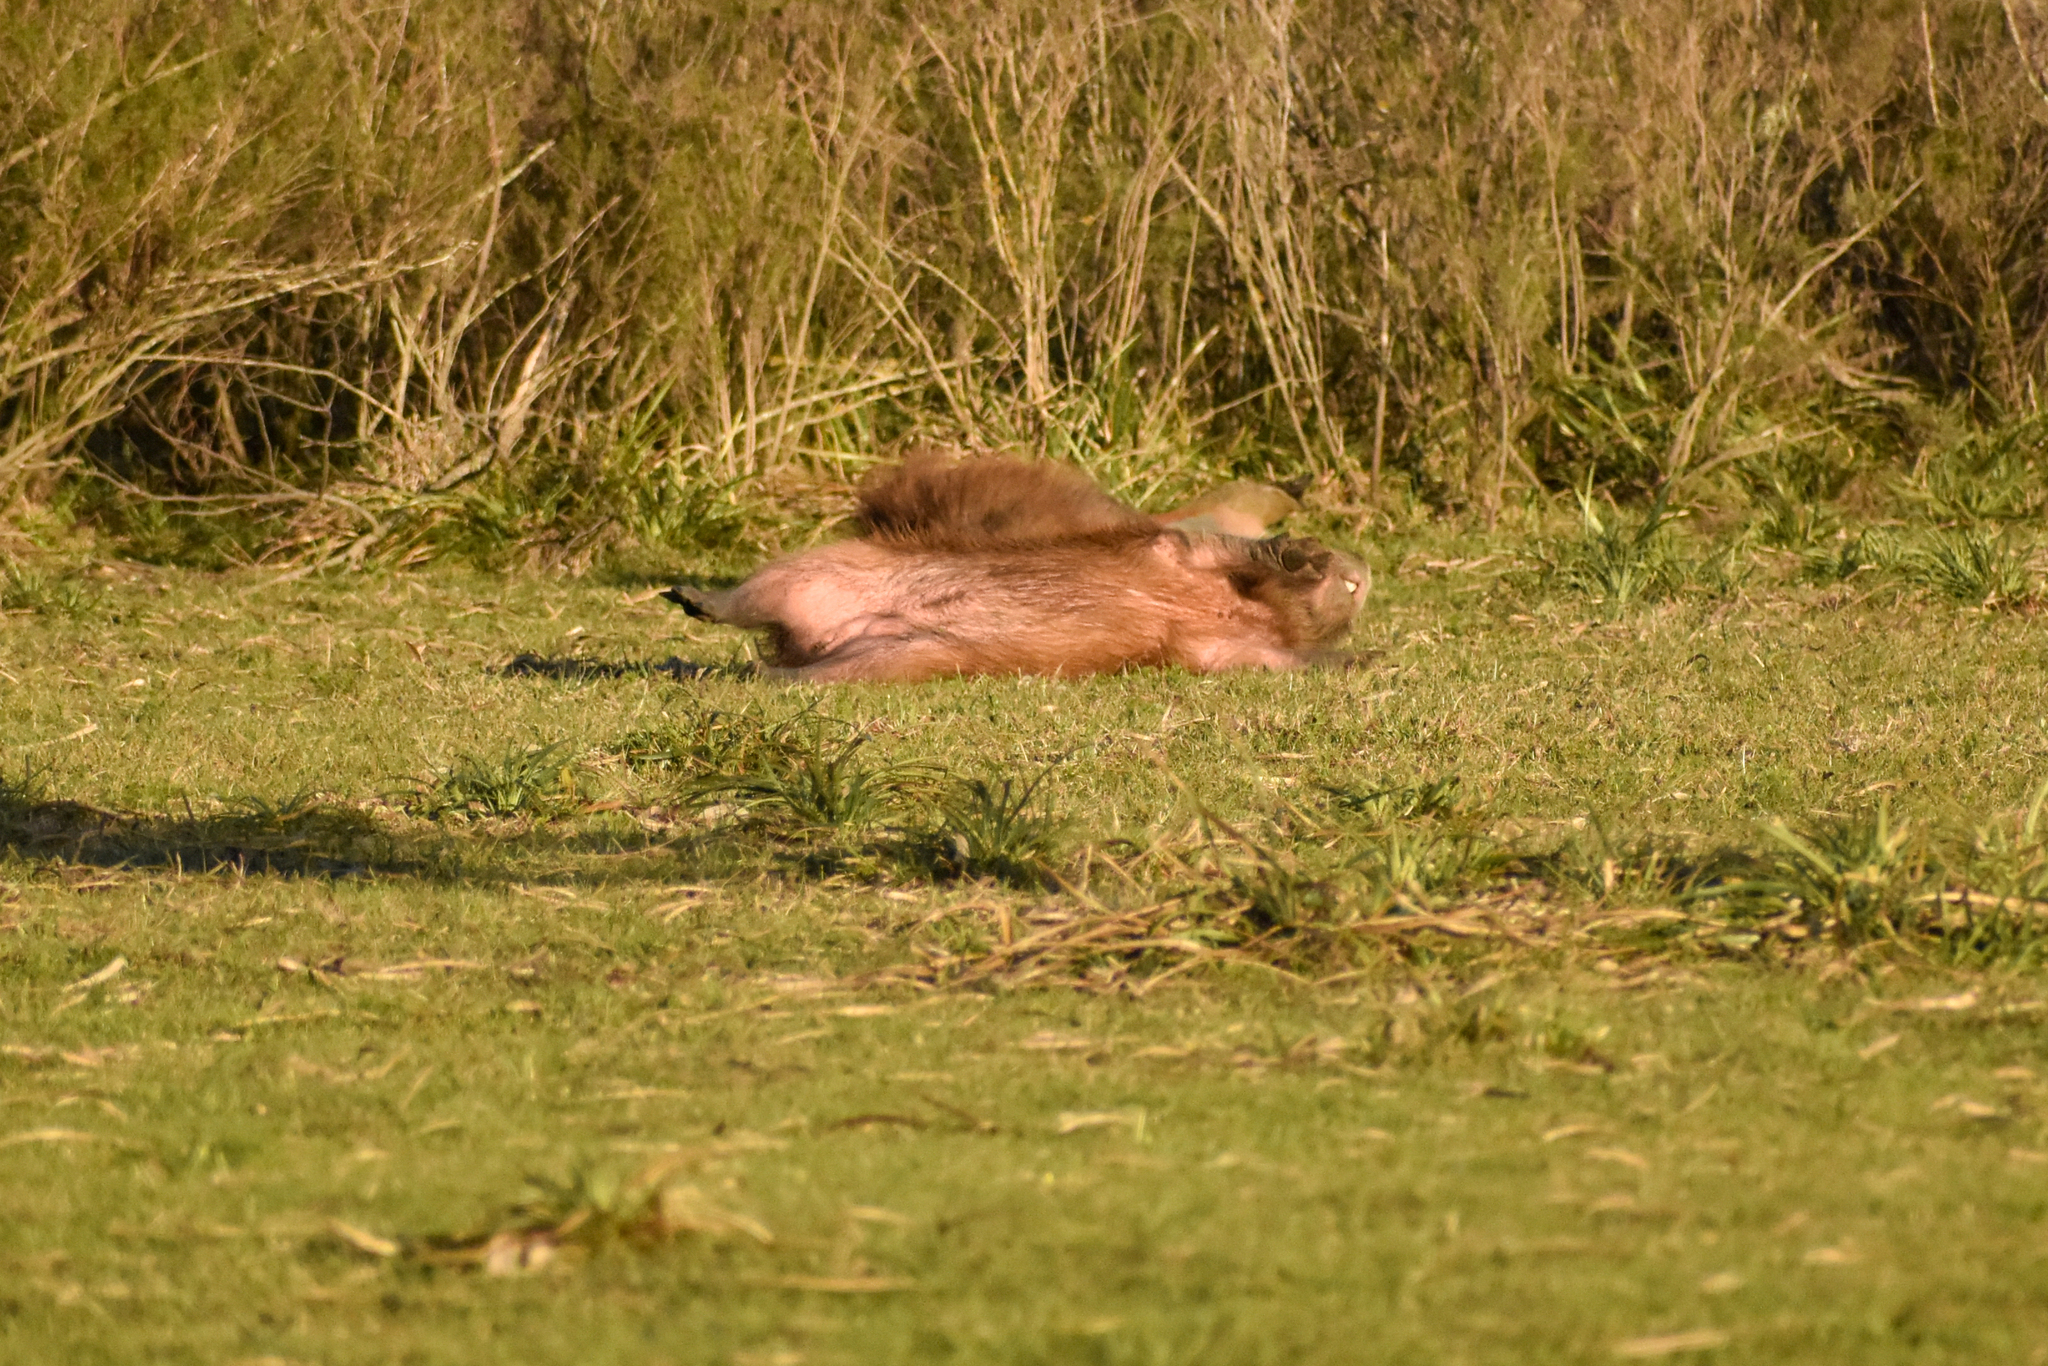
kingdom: Animalia
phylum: Chordata
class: Mammalia
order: Rodentia
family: Caviidae
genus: Hydrochoerus
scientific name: Hydrochoerus hydrochaeris
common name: Capybara
